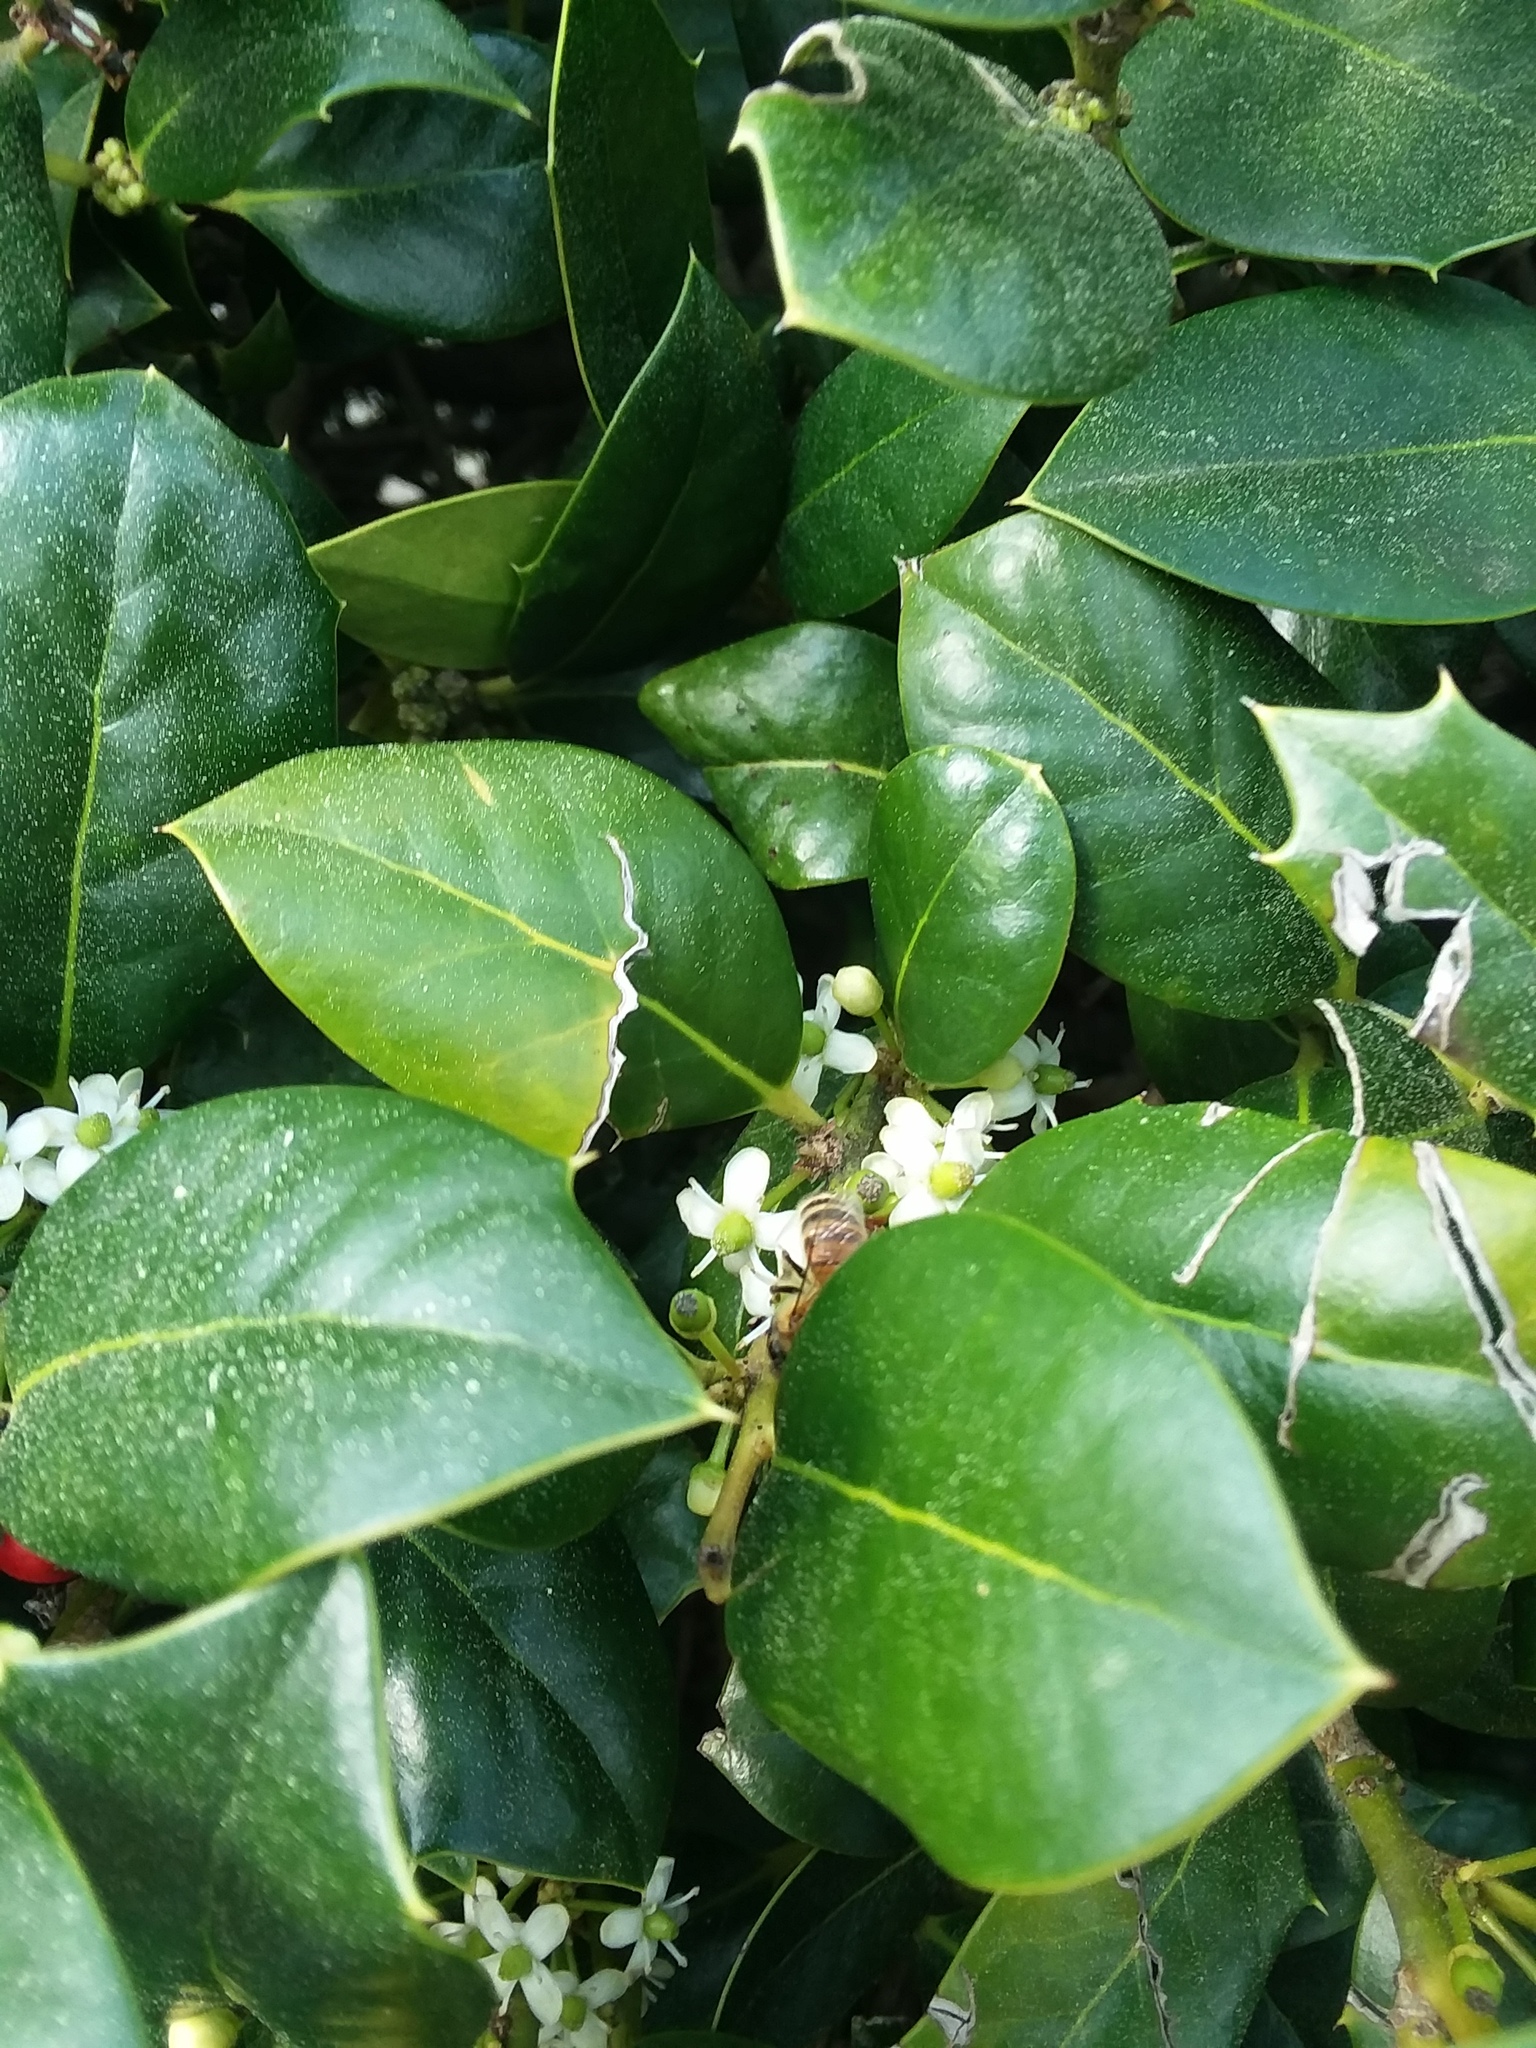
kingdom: Animalia
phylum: Arthropoda
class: Insecta
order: Hymenoptera
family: Apidae
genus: Apis
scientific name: Apis mellifera
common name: Honey bee
